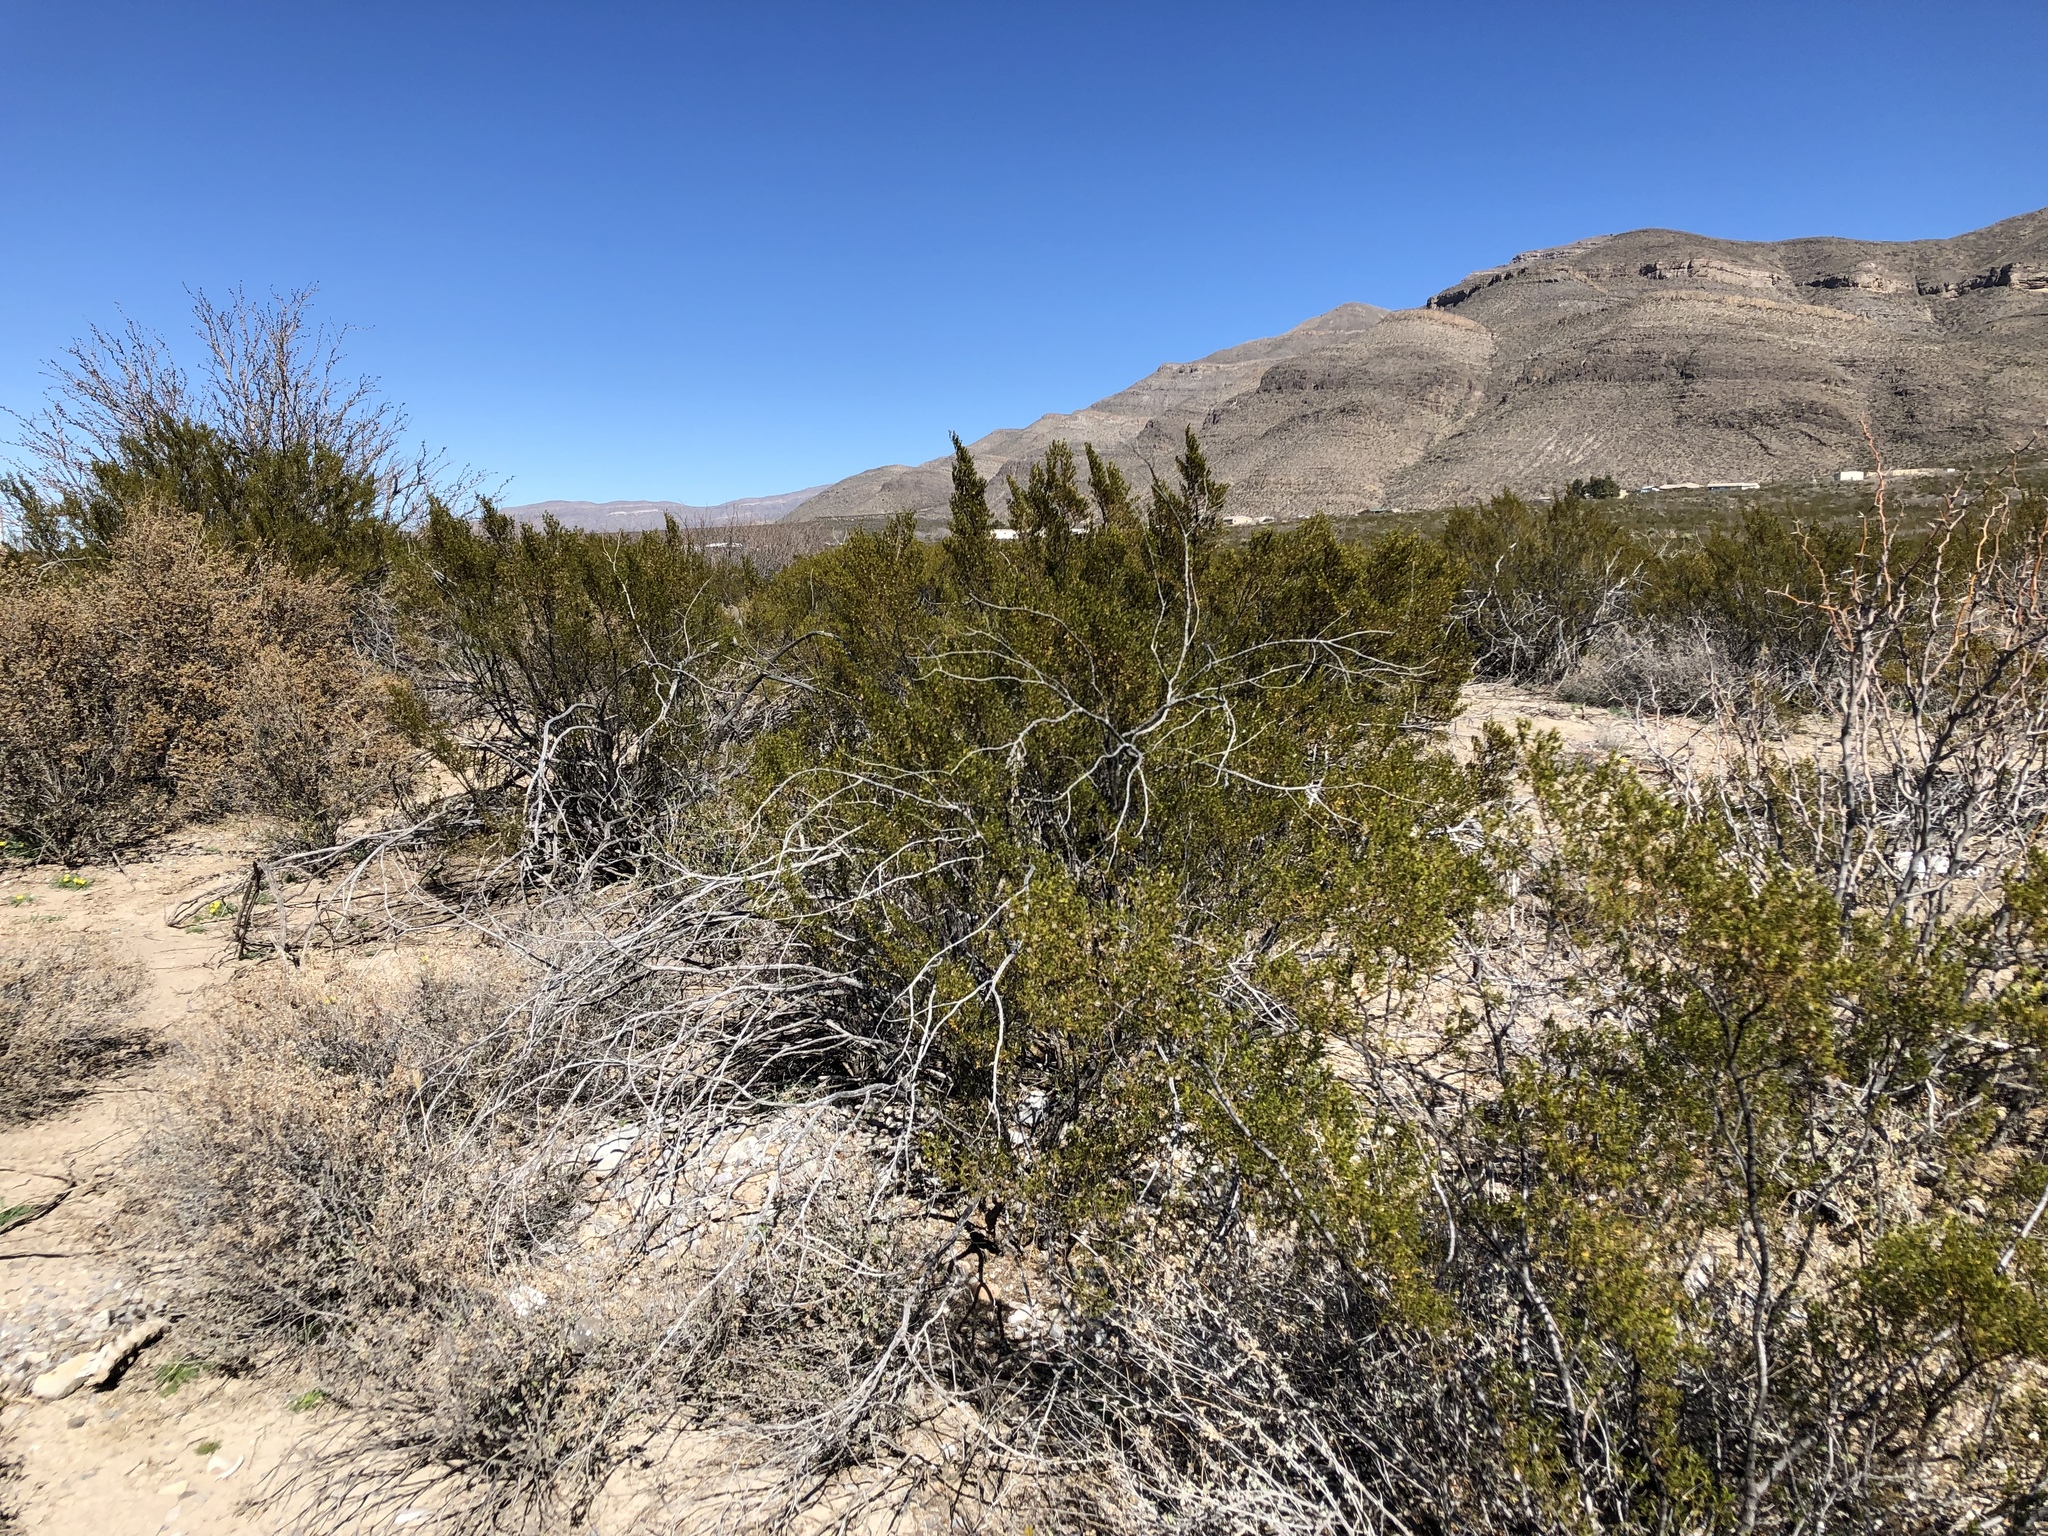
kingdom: Plantae
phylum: Tracheophyta
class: Magnoliopsida
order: Zygophyllales
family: Zygophyllaceae
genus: Larrea
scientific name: Larrea tridentata
